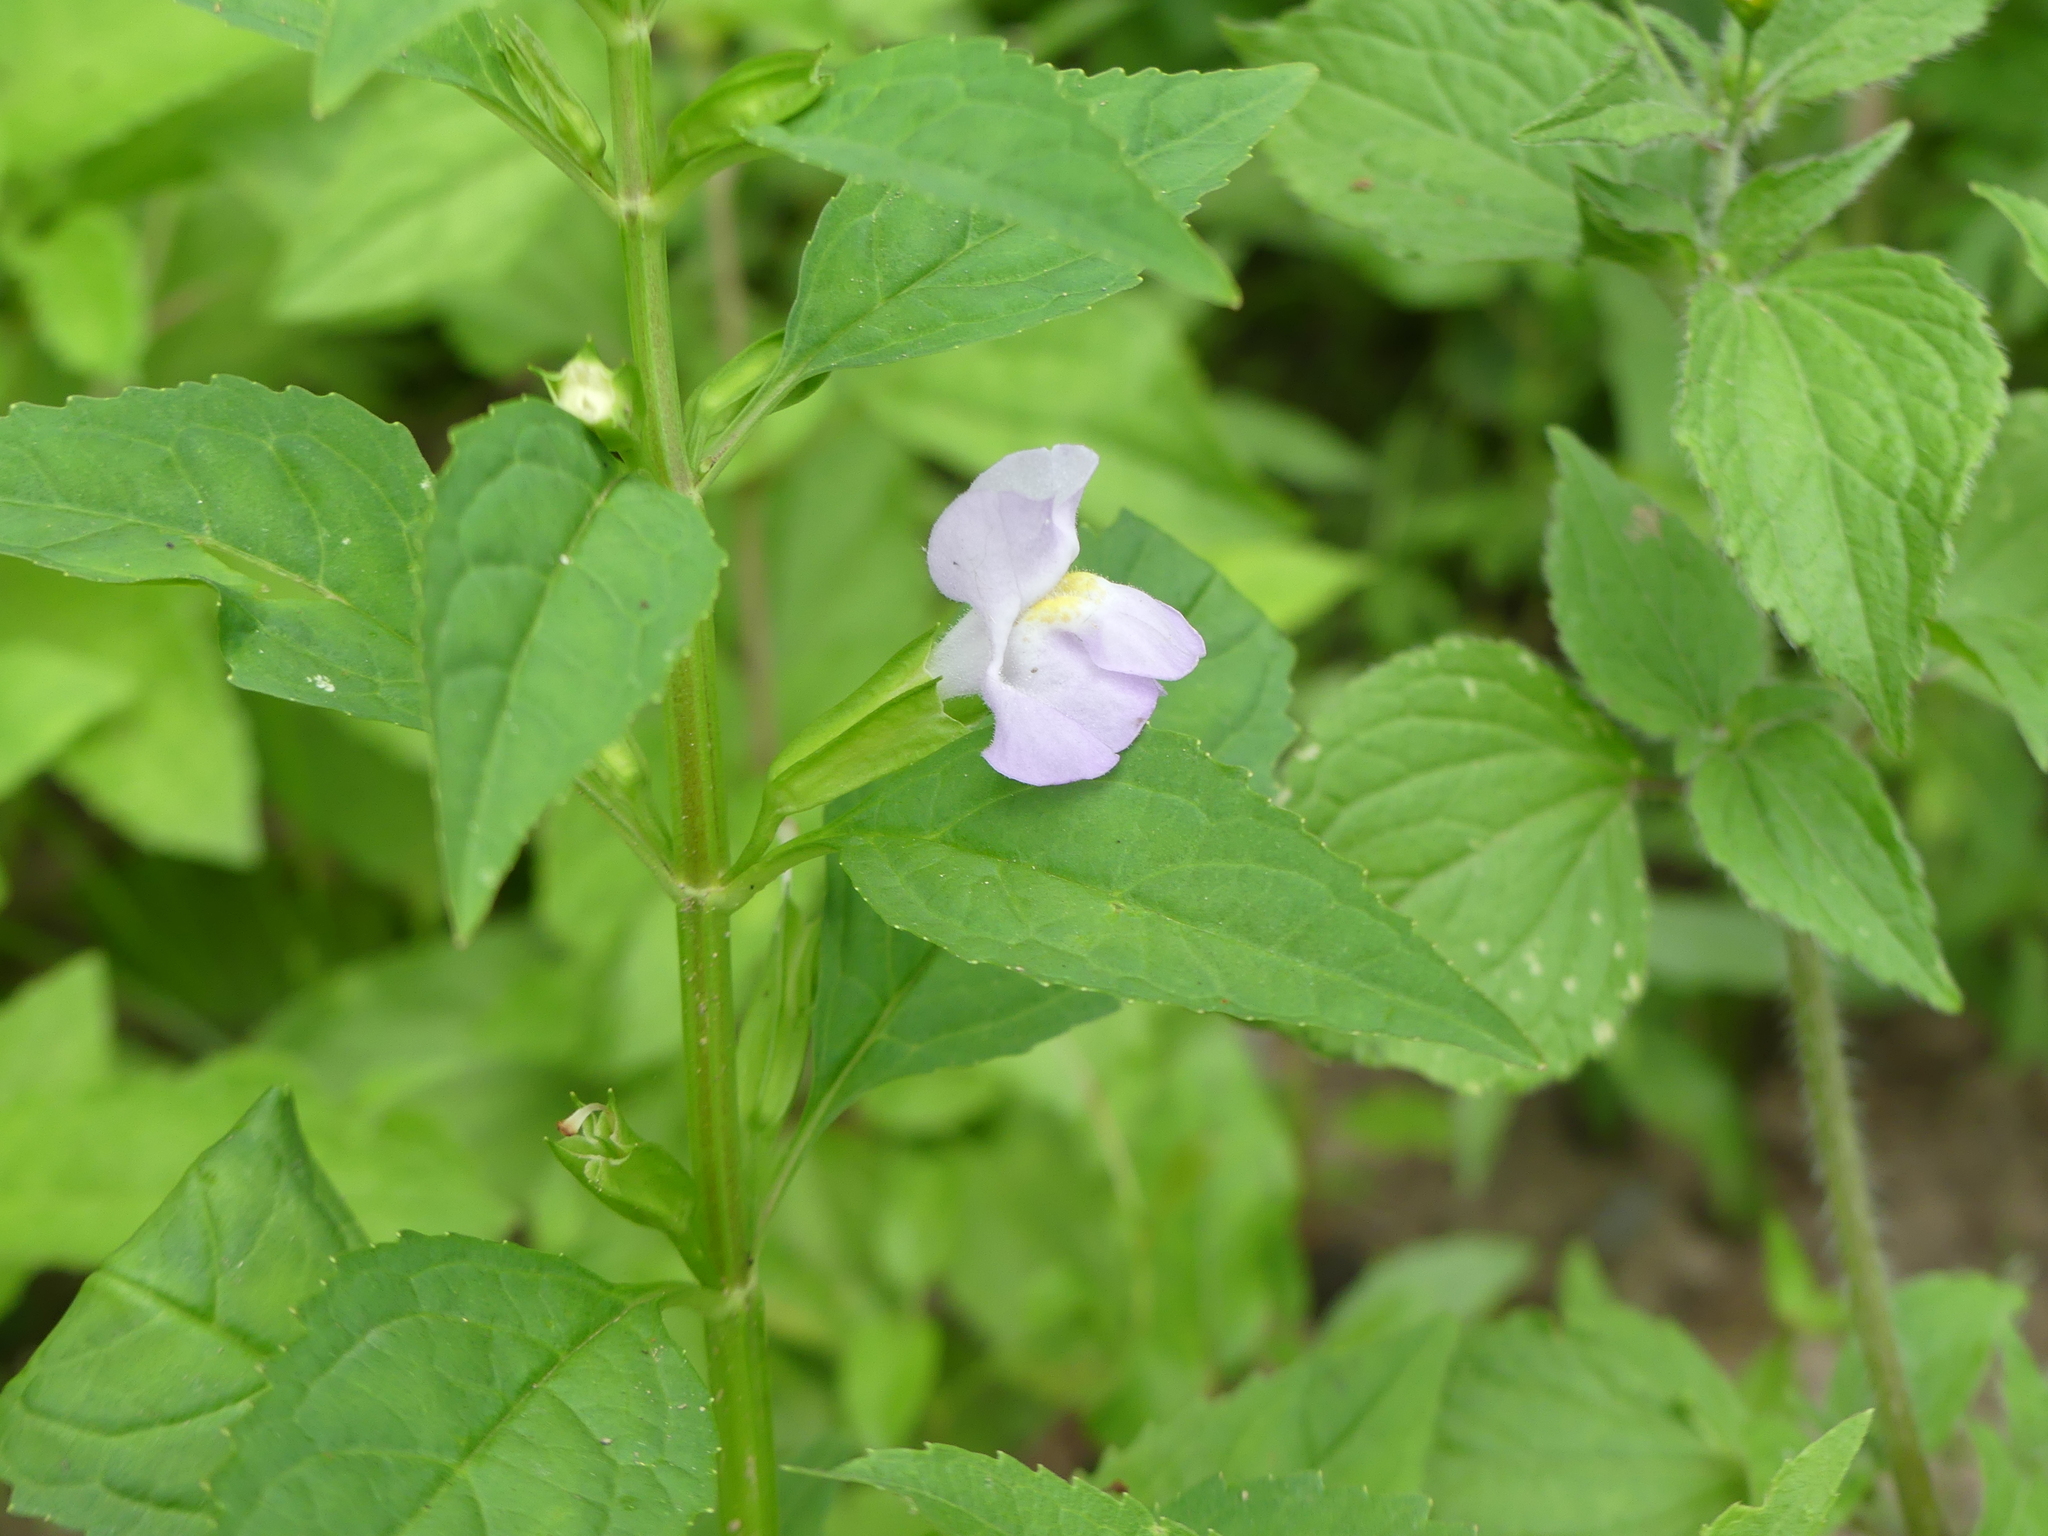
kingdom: Plantae
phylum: Tracheophyta
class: Magnoliopsida
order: Lamiales
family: Phrymaceae
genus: Mimulus
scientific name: Mimulus alatus
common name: Sharp-wing monkey-flower
